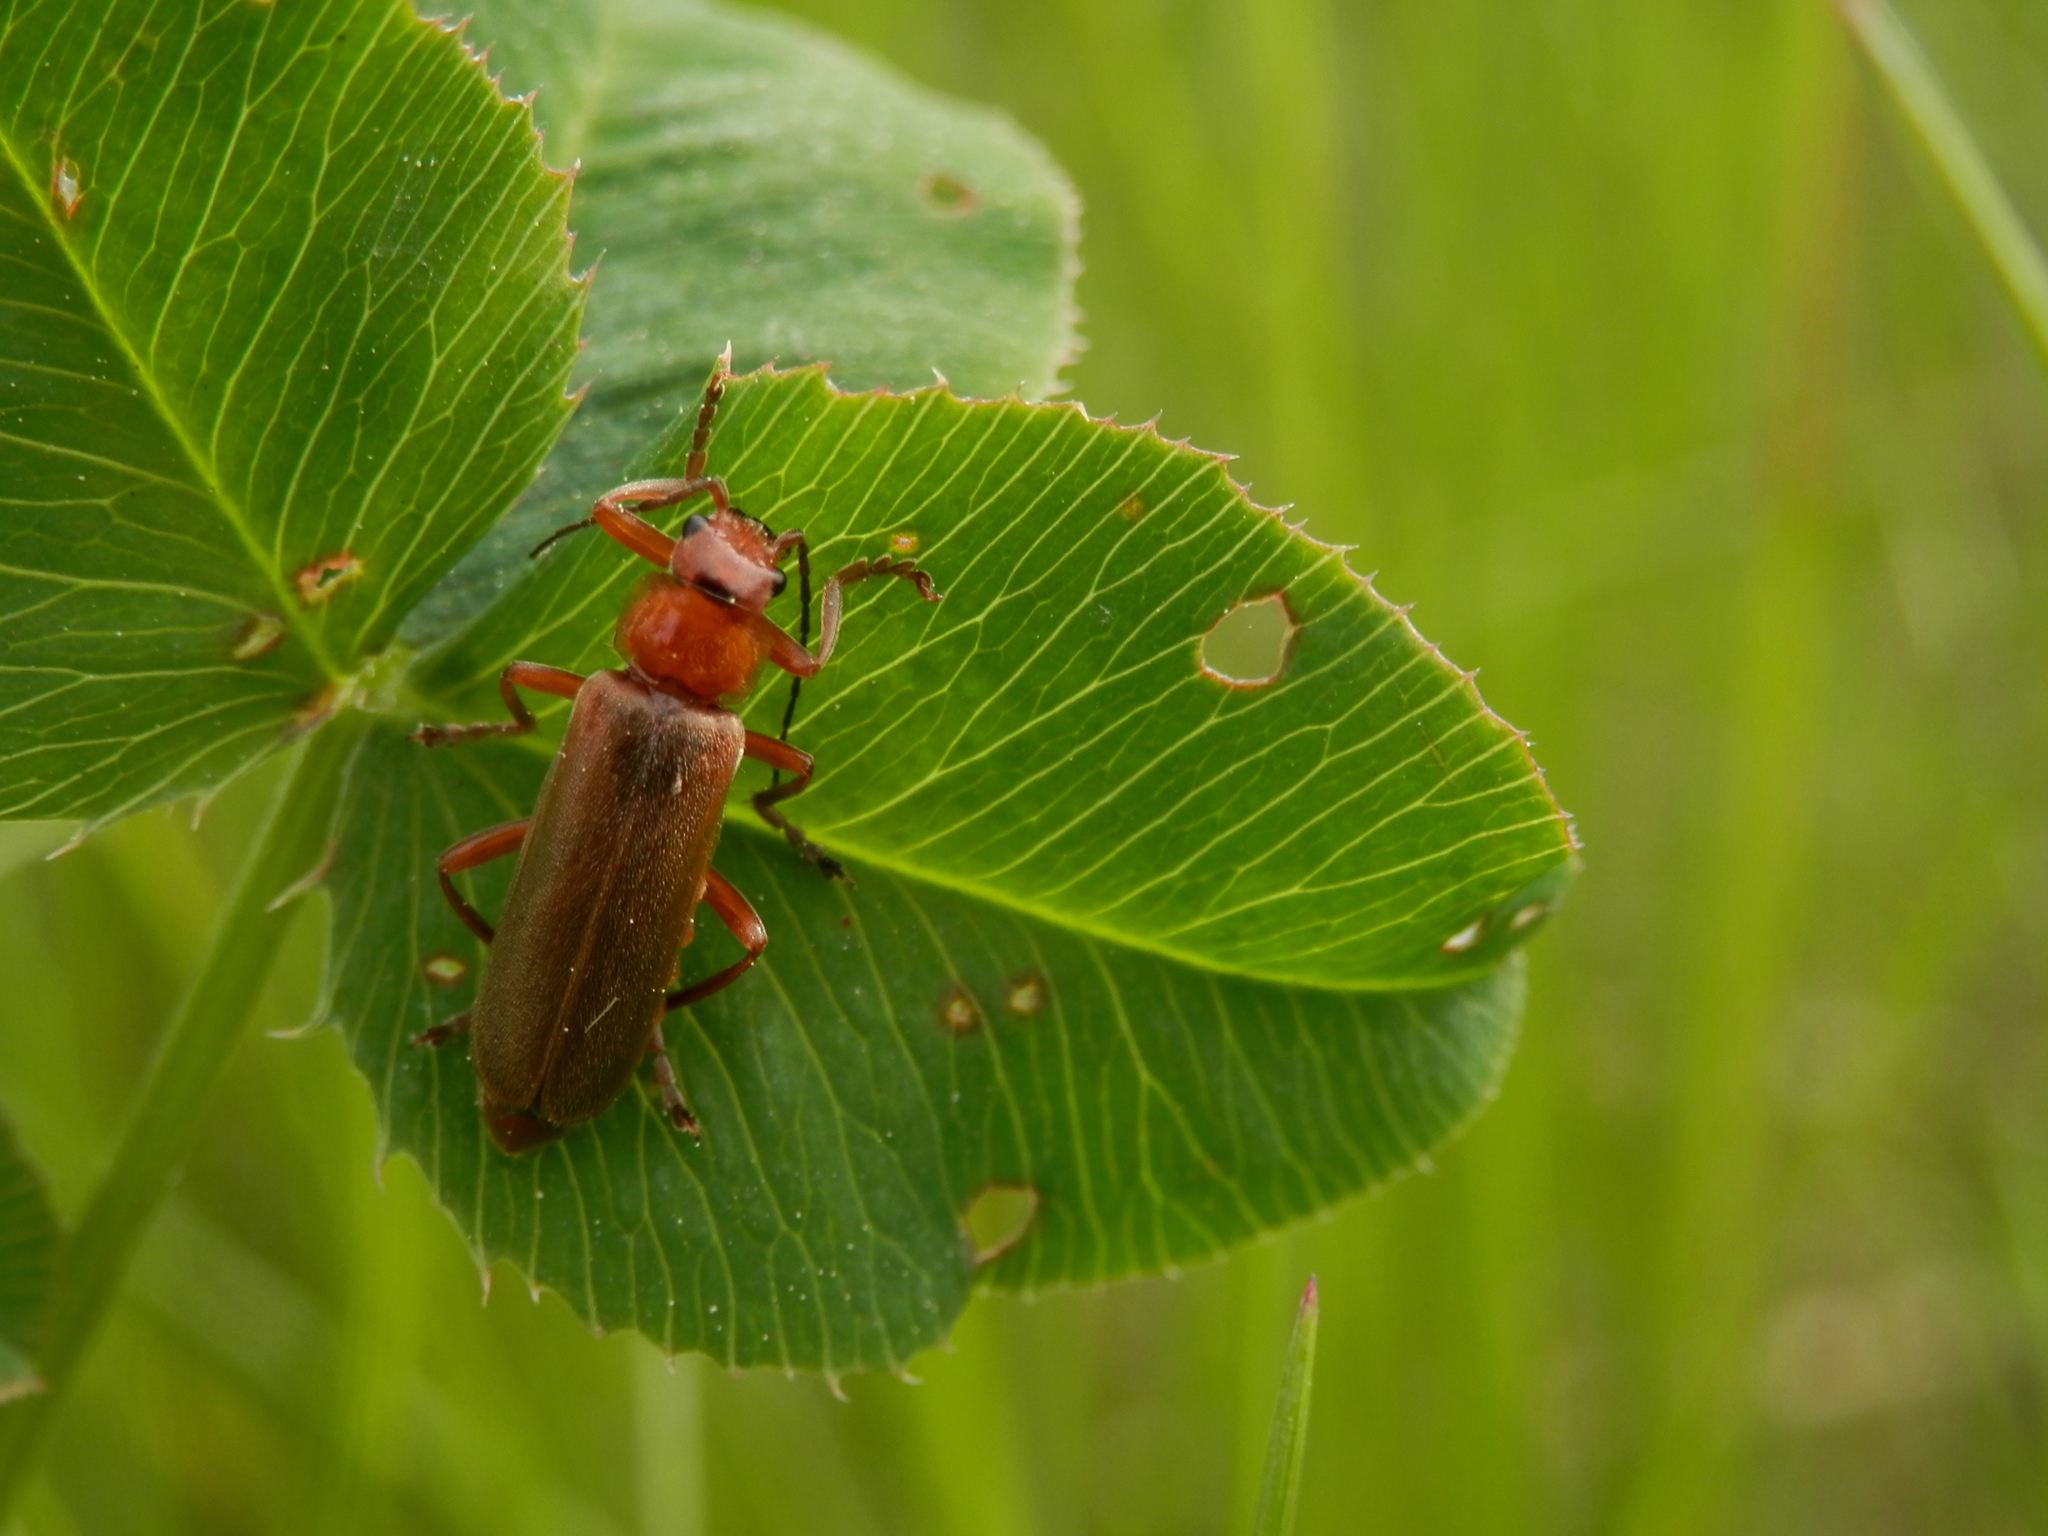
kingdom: Animalia
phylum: Arthropoda
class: Insecta
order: Coleoptera
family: Cantharidae
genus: Cantharis
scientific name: Cantharis rufa
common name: Red-spotted soldier beetle
